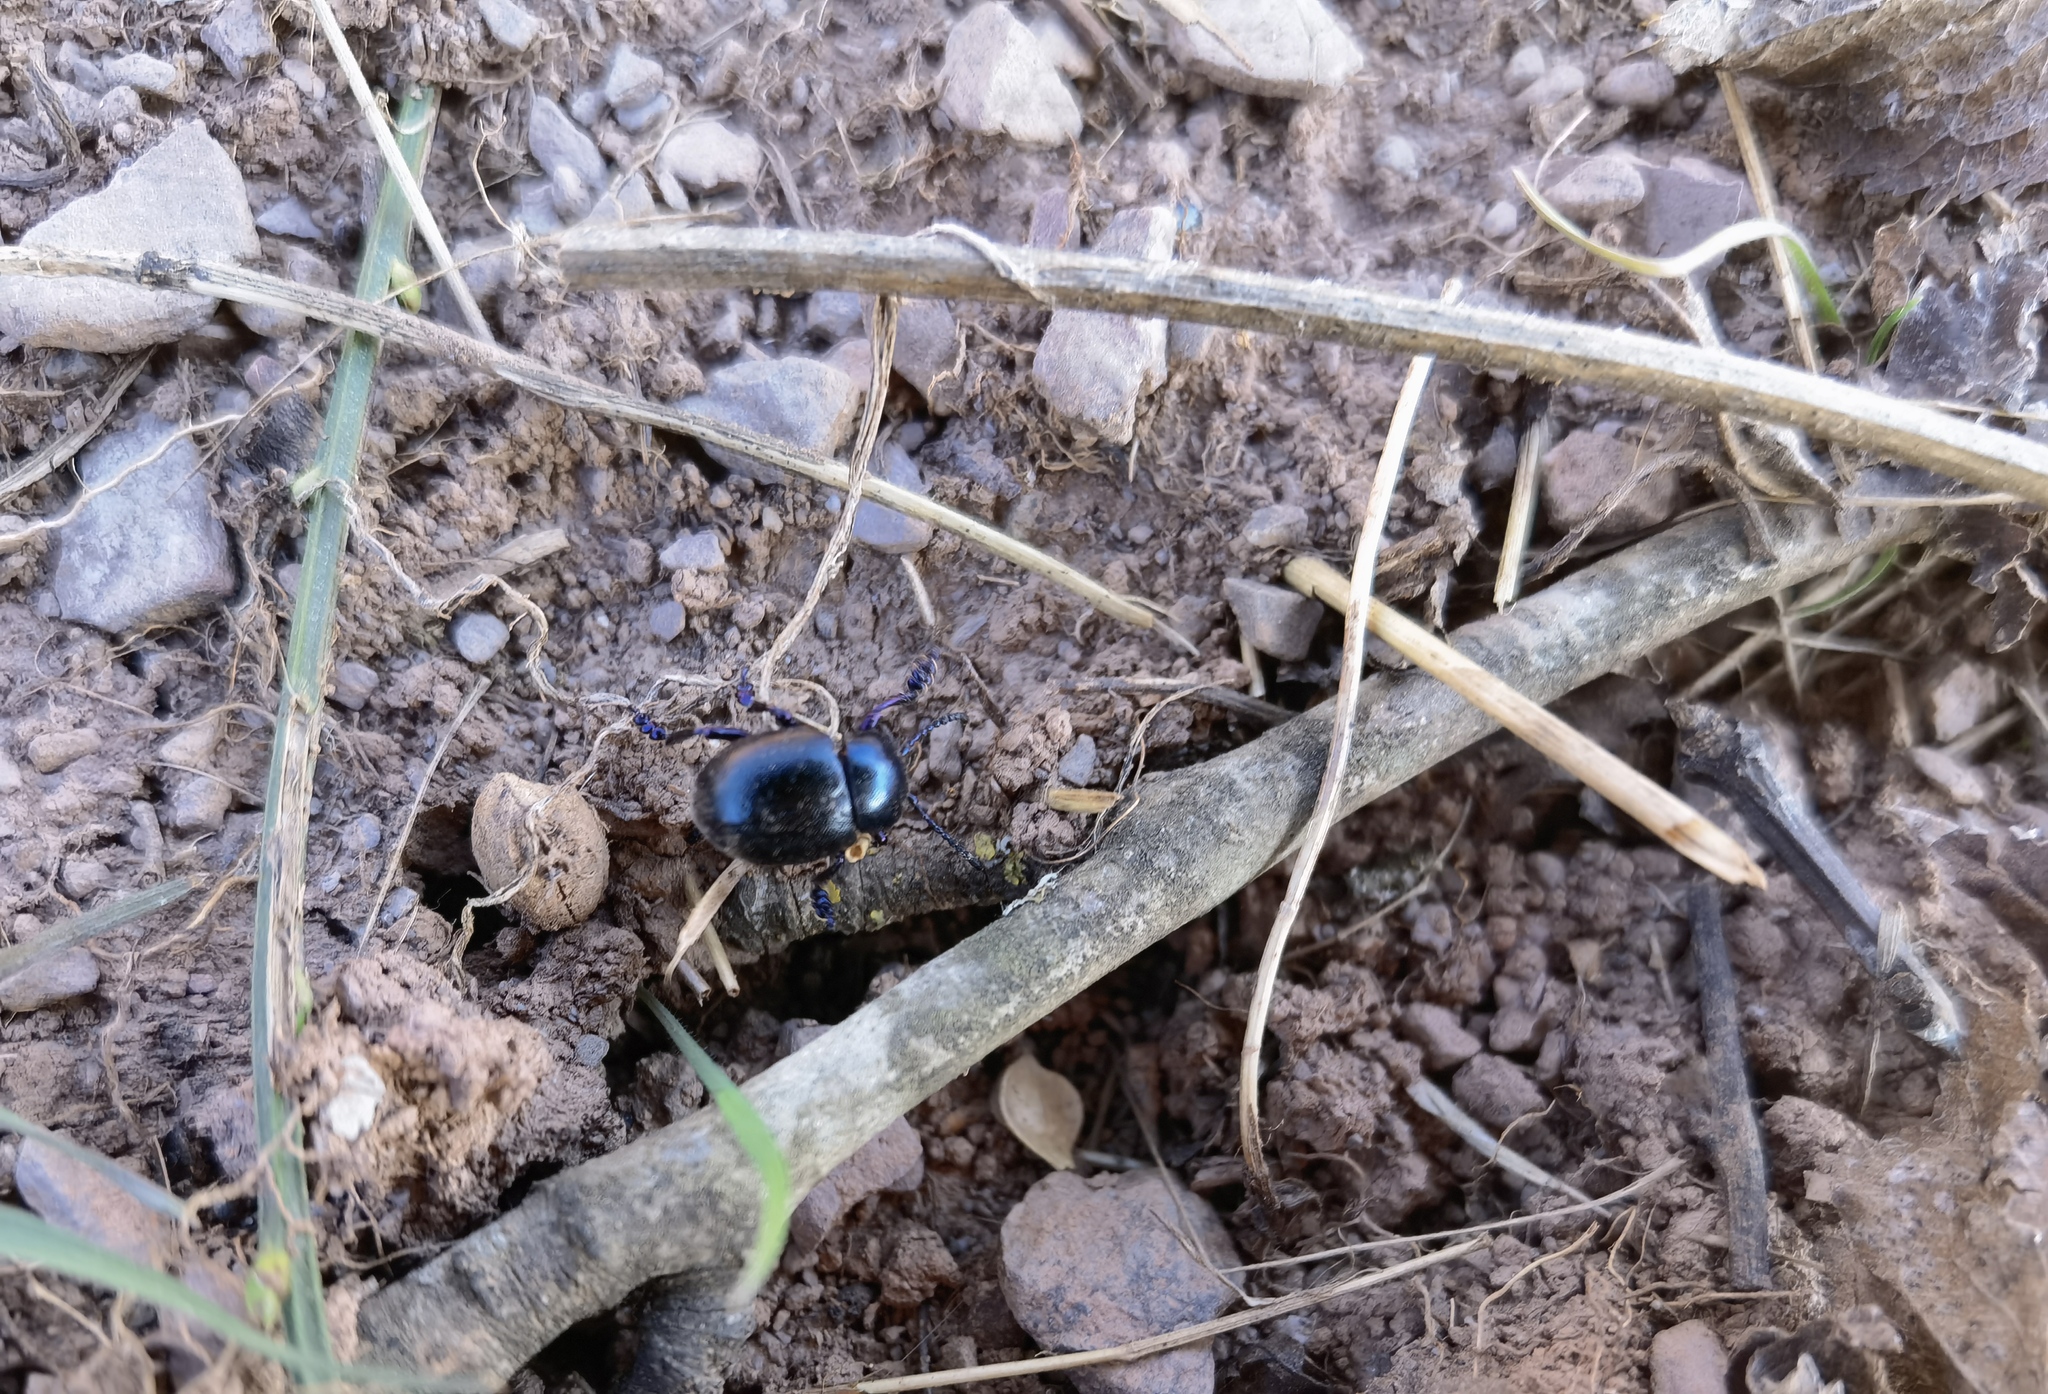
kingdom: Animalia
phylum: Arthropoda
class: Insecta
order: Coleoptera
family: Chrysomelidae
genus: Timarcha
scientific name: Timarcha goettingensis
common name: Small bloody-nosed beetle
